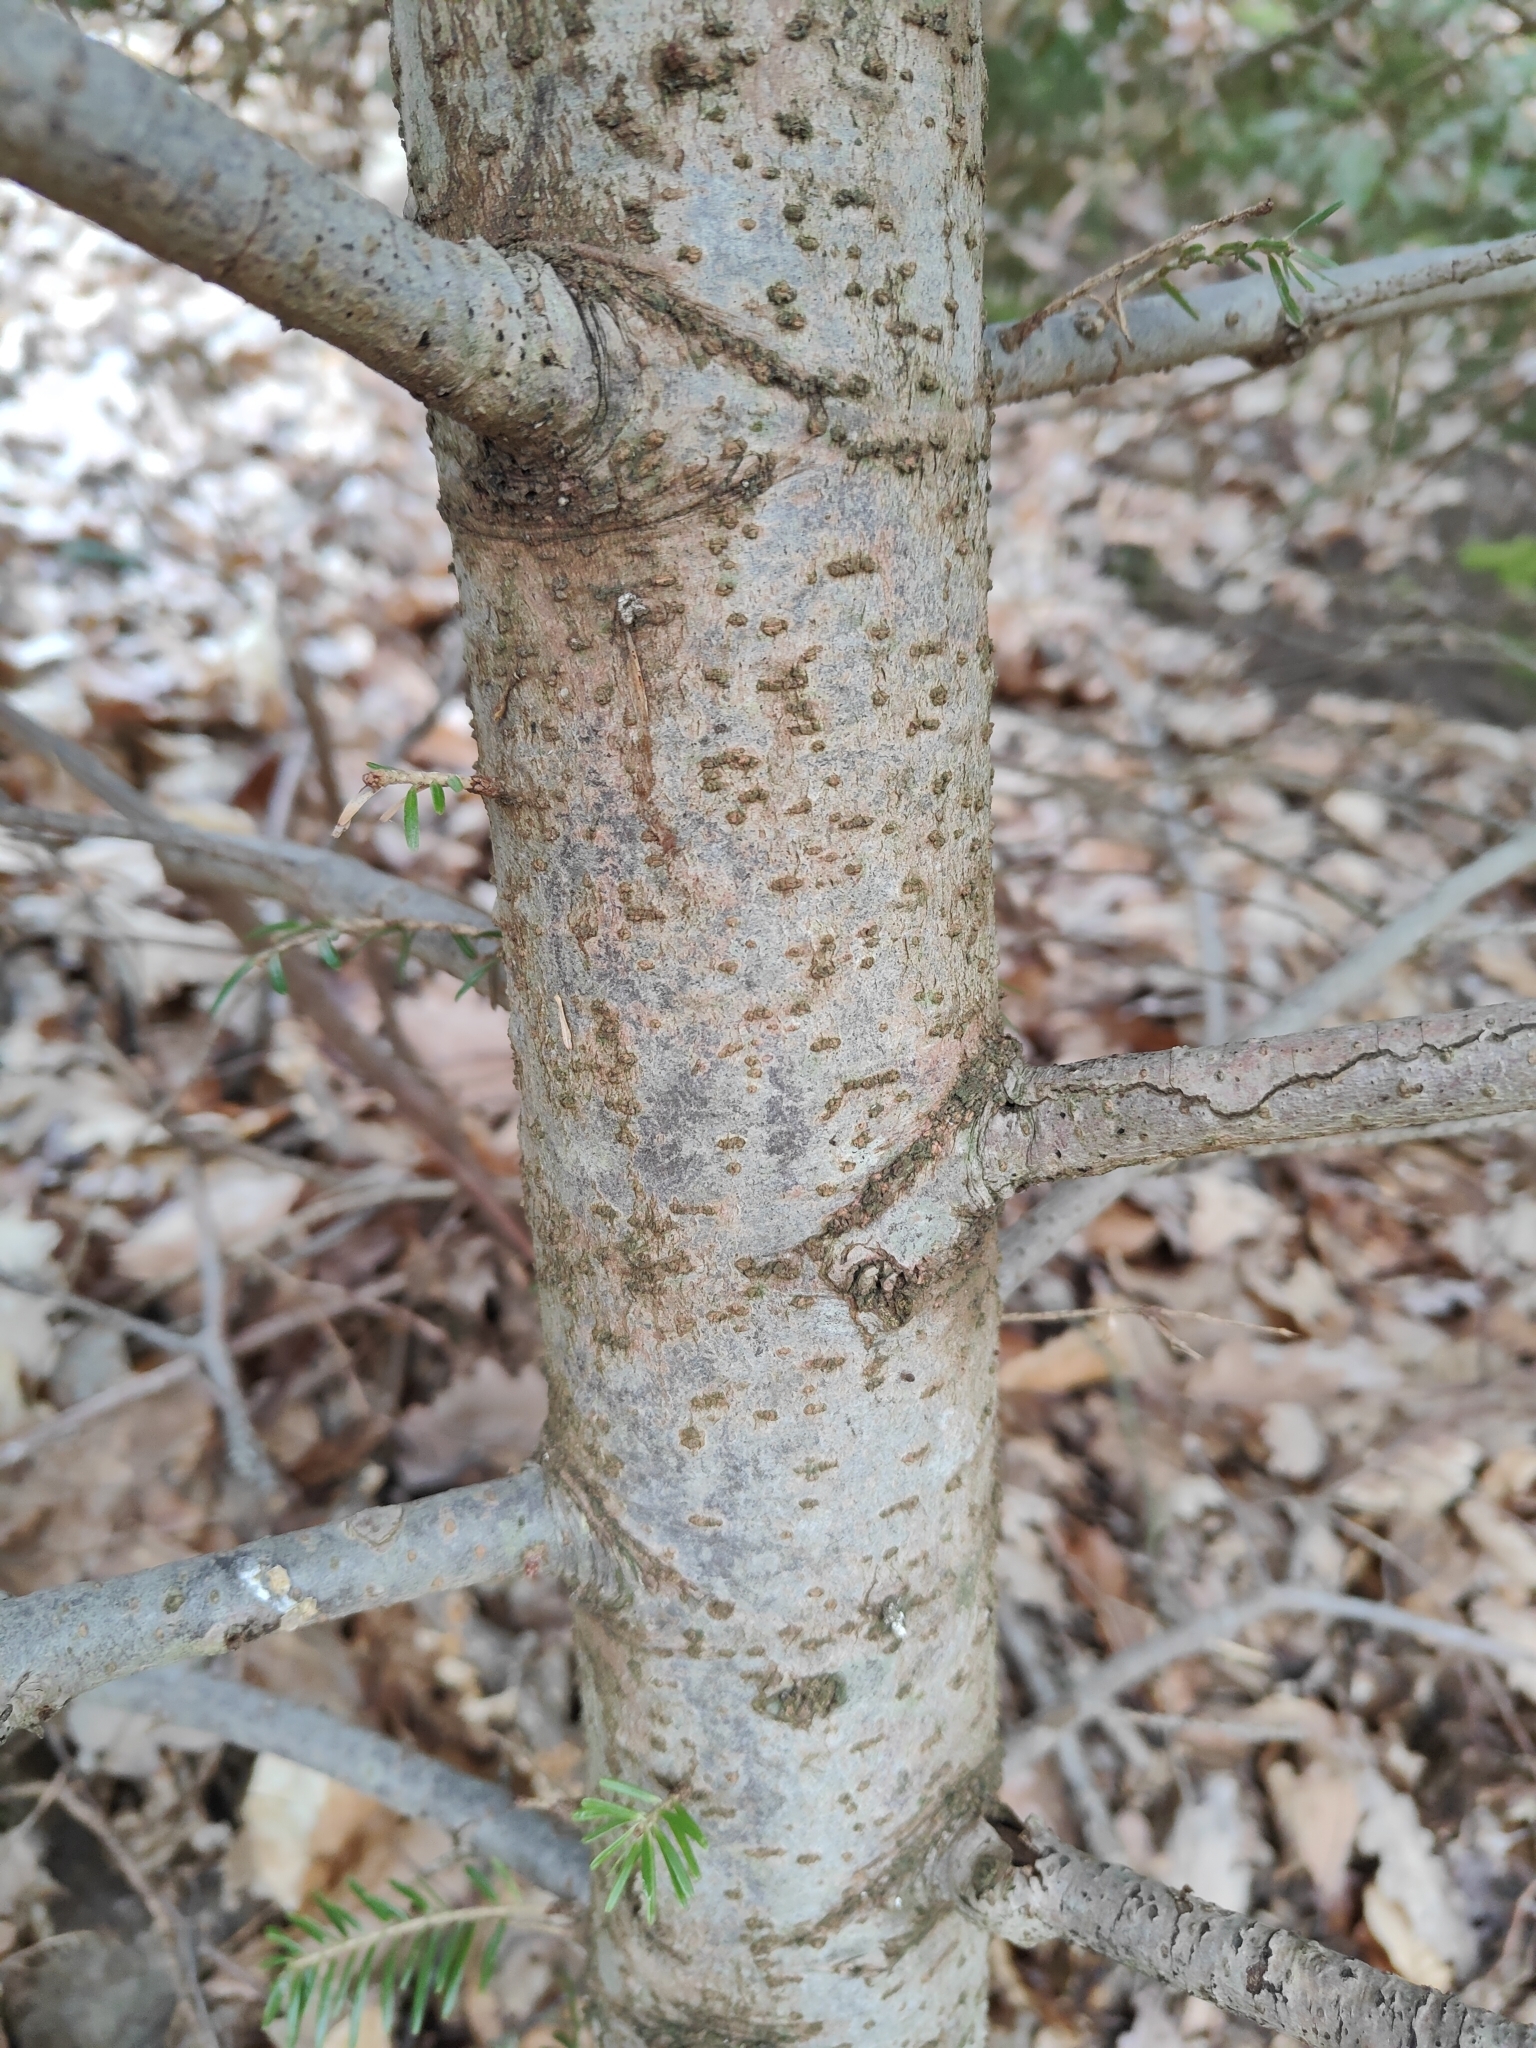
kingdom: Plantae
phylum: Tracheophyta
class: Pinopsida
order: Pinales
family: Pinaceae
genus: Abies
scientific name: Abies alba
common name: Silver fir
